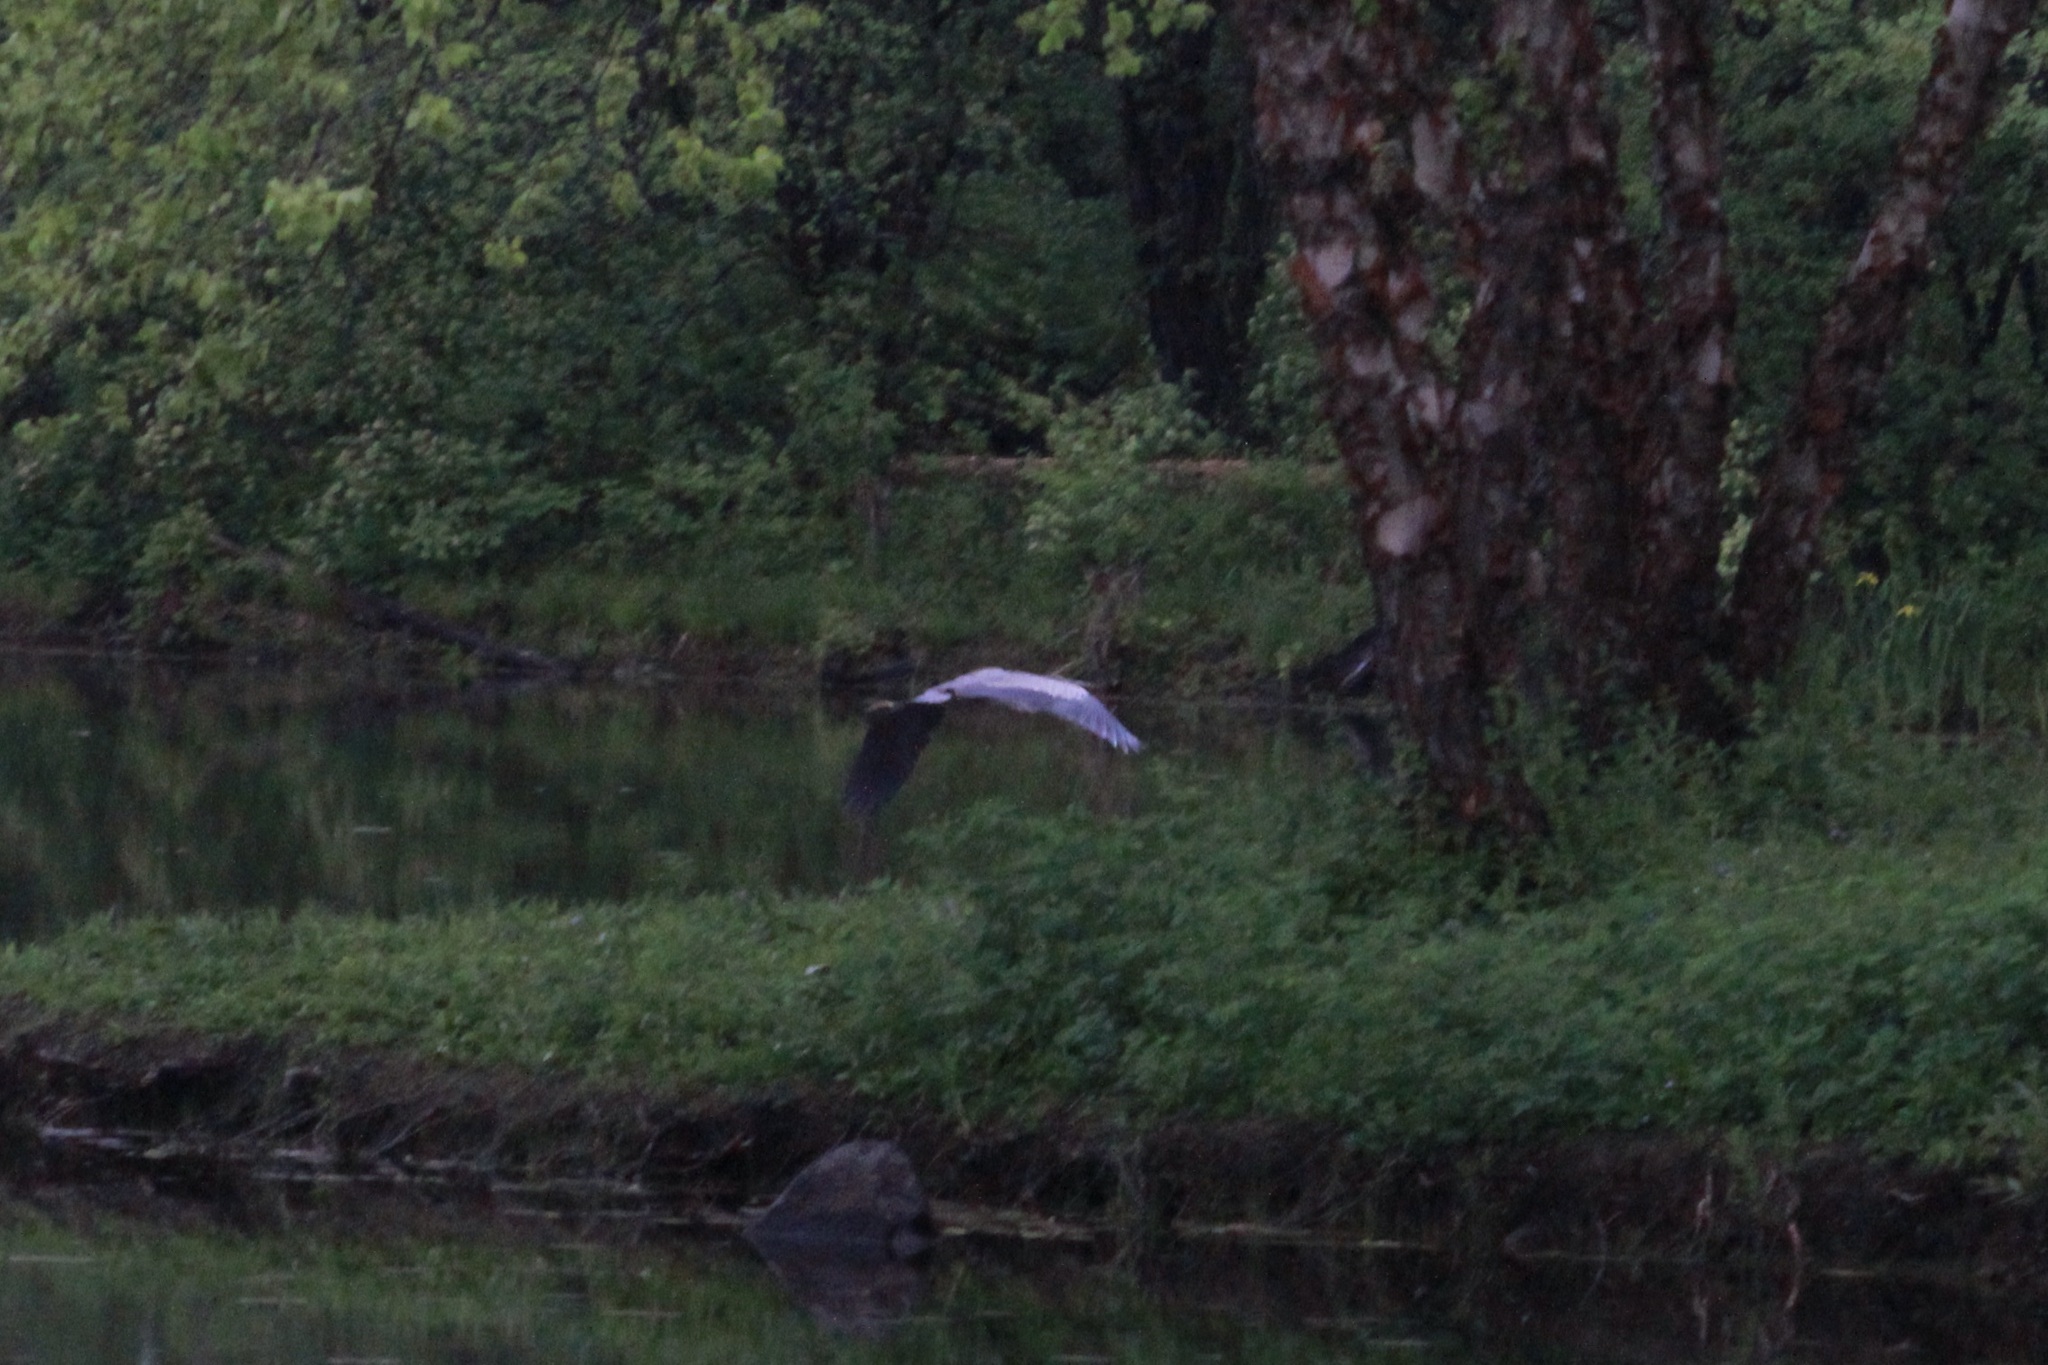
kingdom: Animalia
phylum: Chordata
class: Aves
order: Pelecaniformes
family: Ardeidae
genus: Ardea
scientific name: Ardea herodias
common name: Great blue heron
